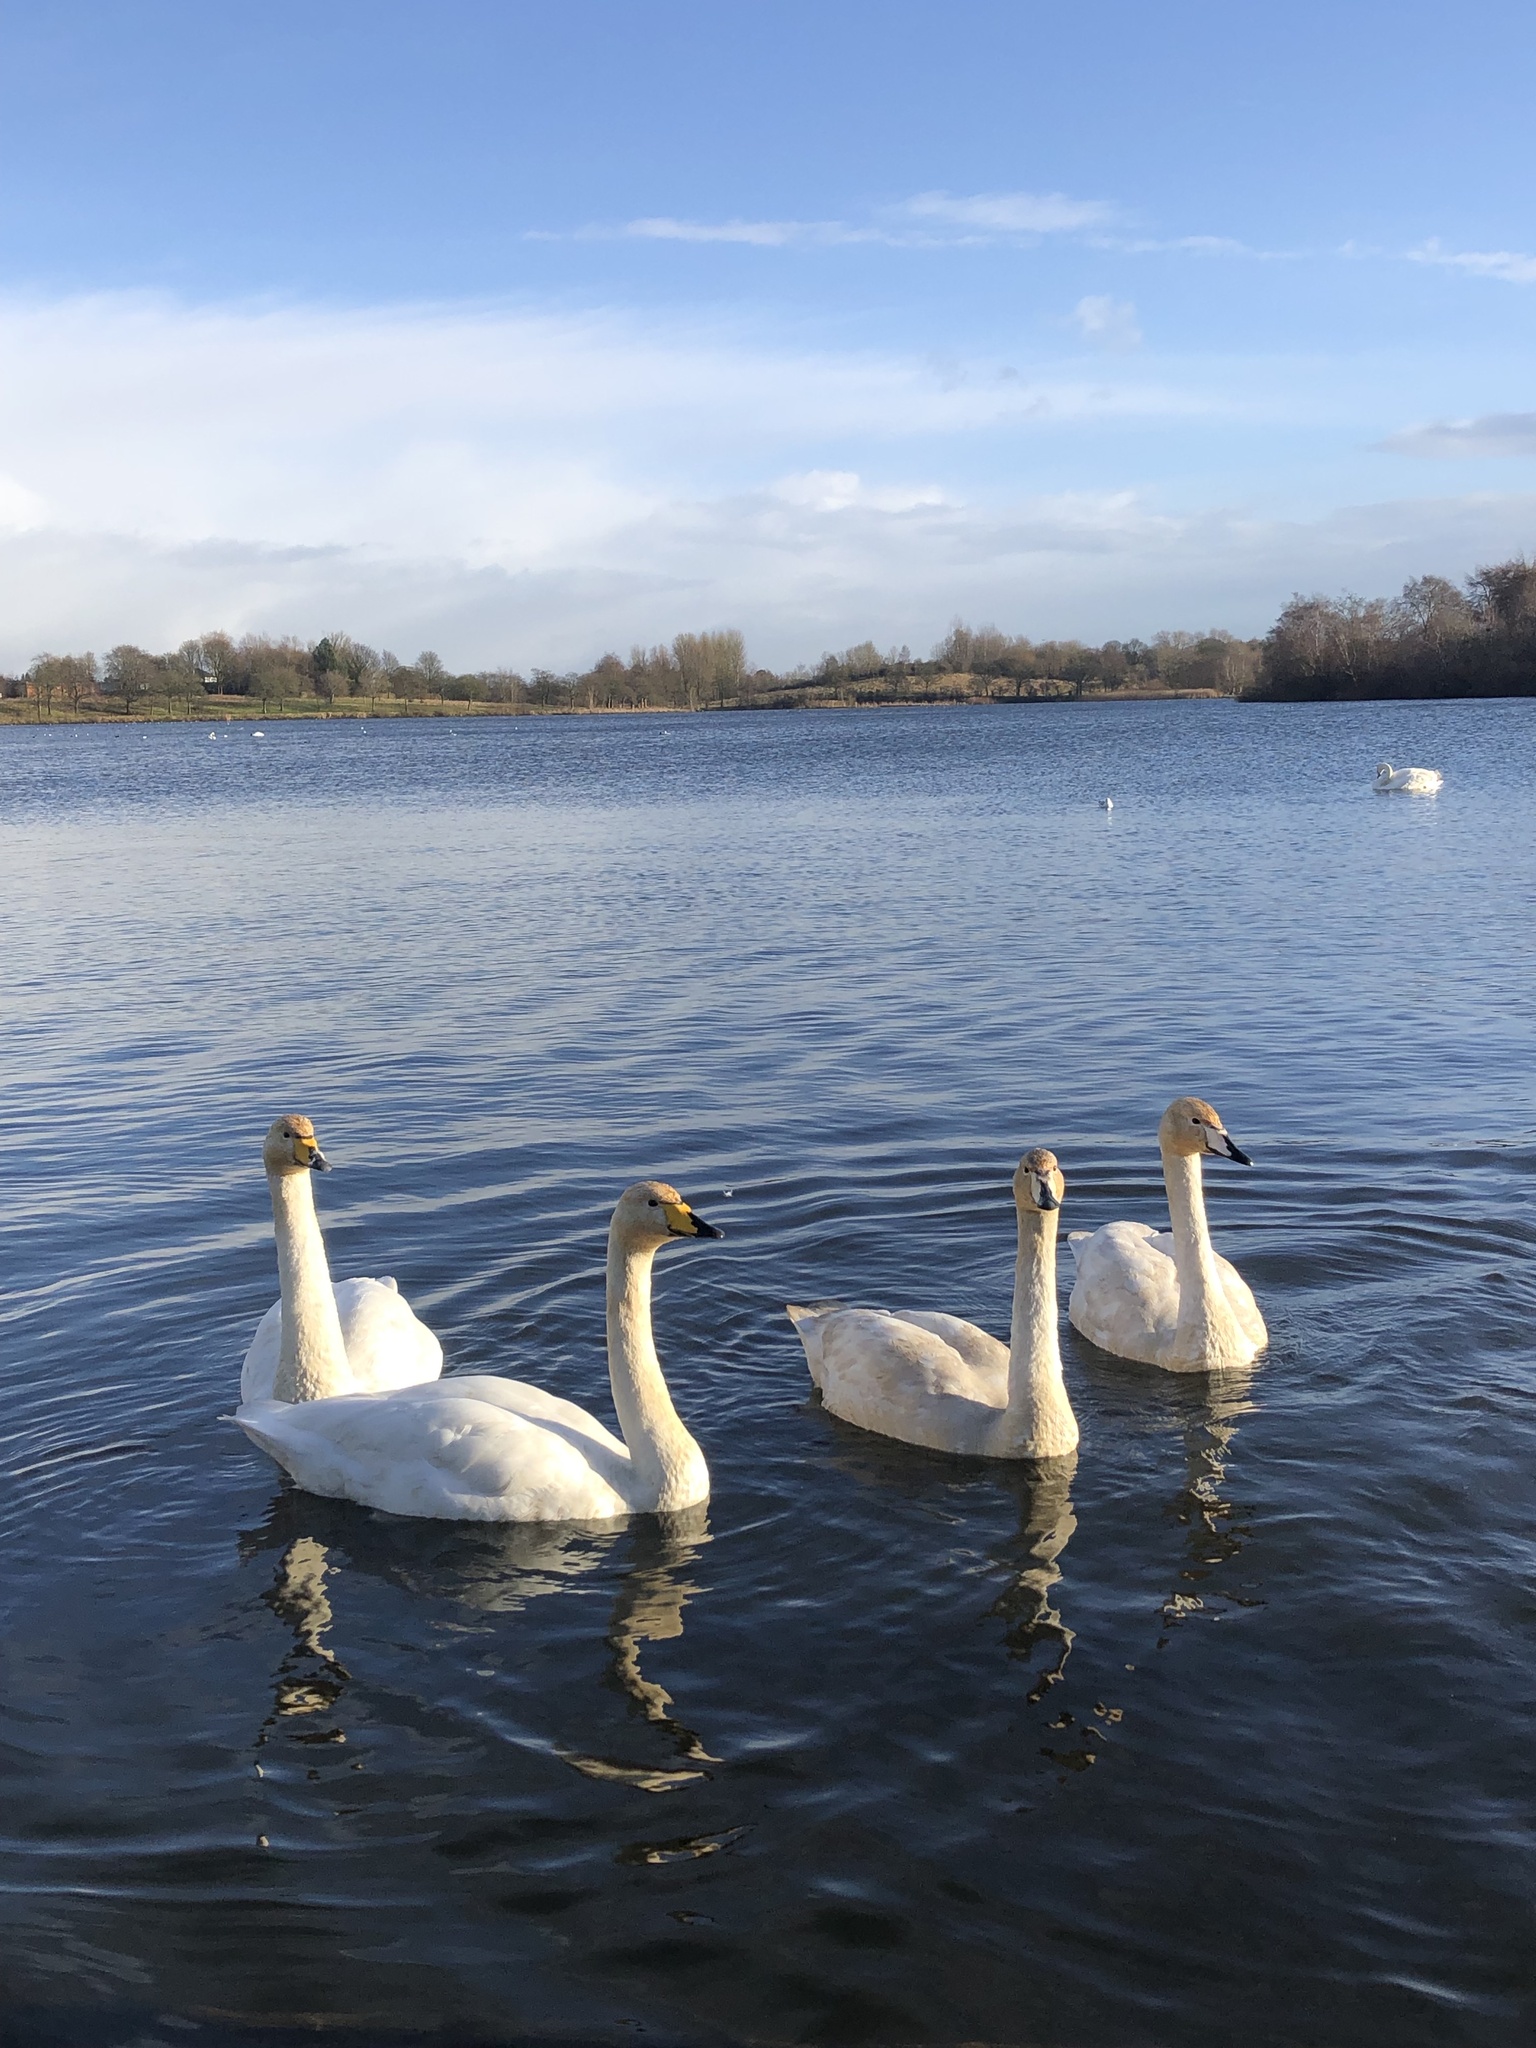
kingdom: Animalia
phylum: Chordata
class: Aves
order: Anseriformes
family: Anatidae
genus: Cygnus
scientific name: Cygnus cygnus
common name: Whooper swan
